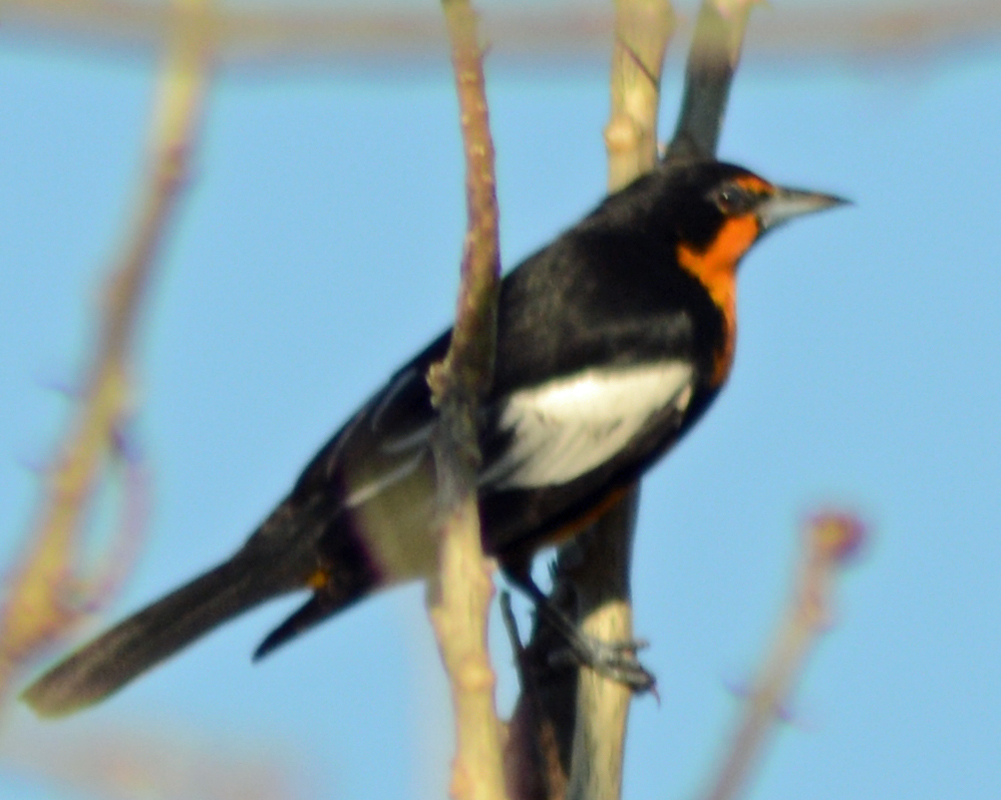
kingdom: Animalia
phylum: Chordata
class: Aves
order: Passeriformes
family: Icteridae
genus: Icterus
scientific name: Icterus abeillei
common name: Black-backed oriole
